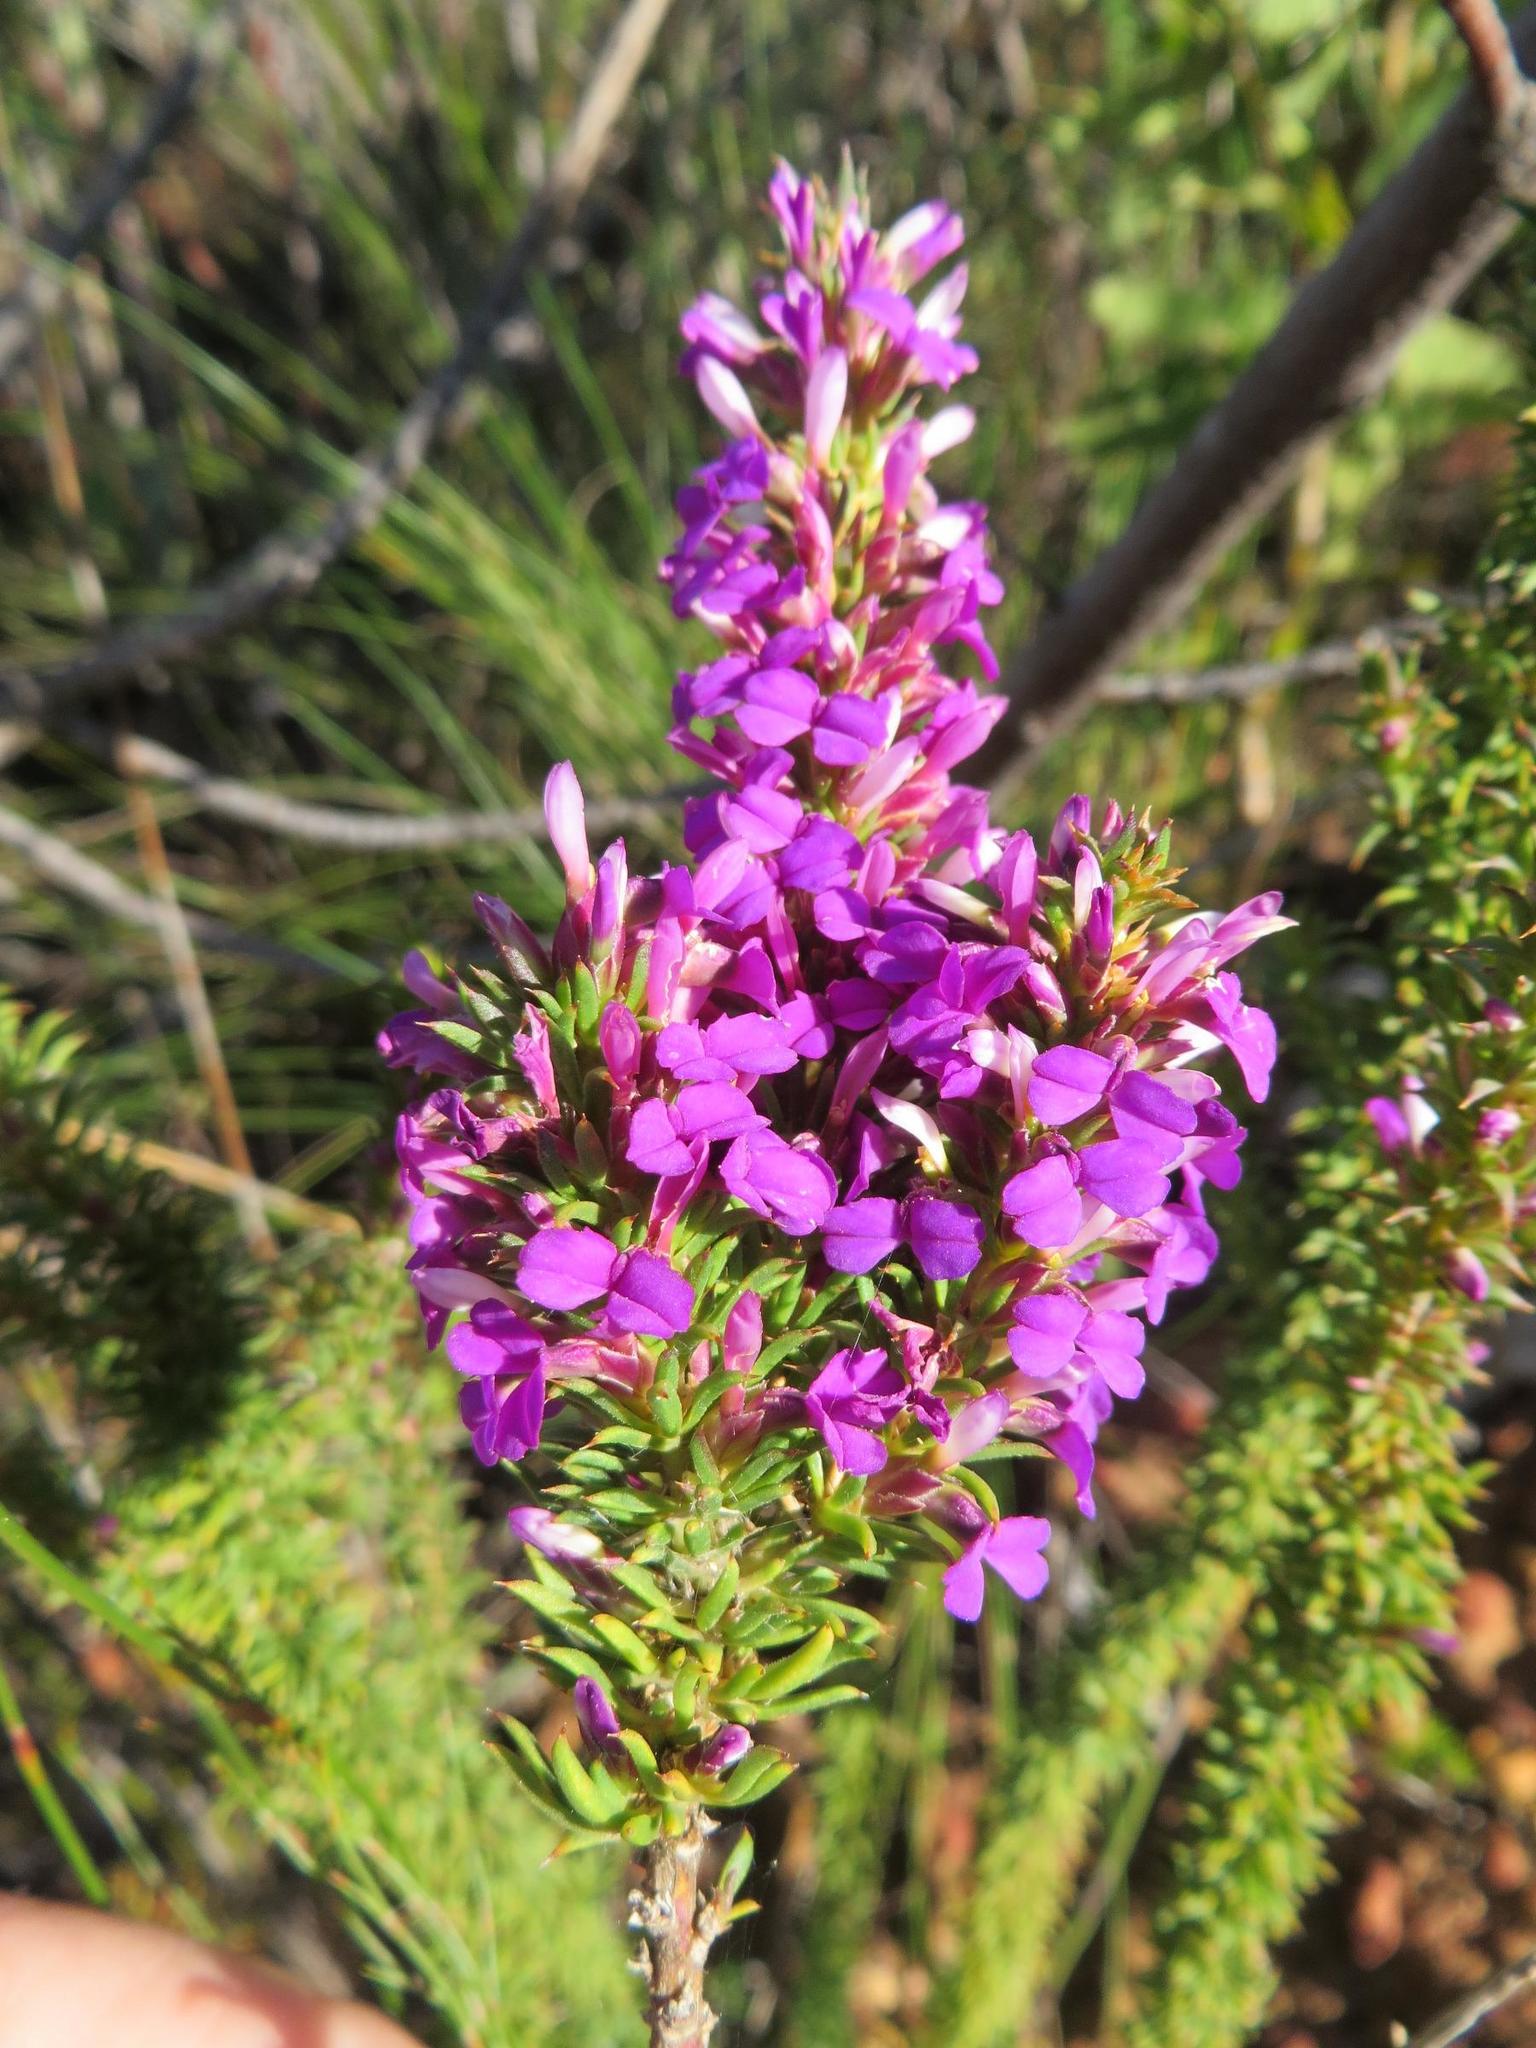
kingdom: Plantae
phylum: Tracheophyta
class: Magnoliopsida
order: Fabales
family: Polygalaceae
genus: Muraltia
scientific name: Muraltia heisteria
